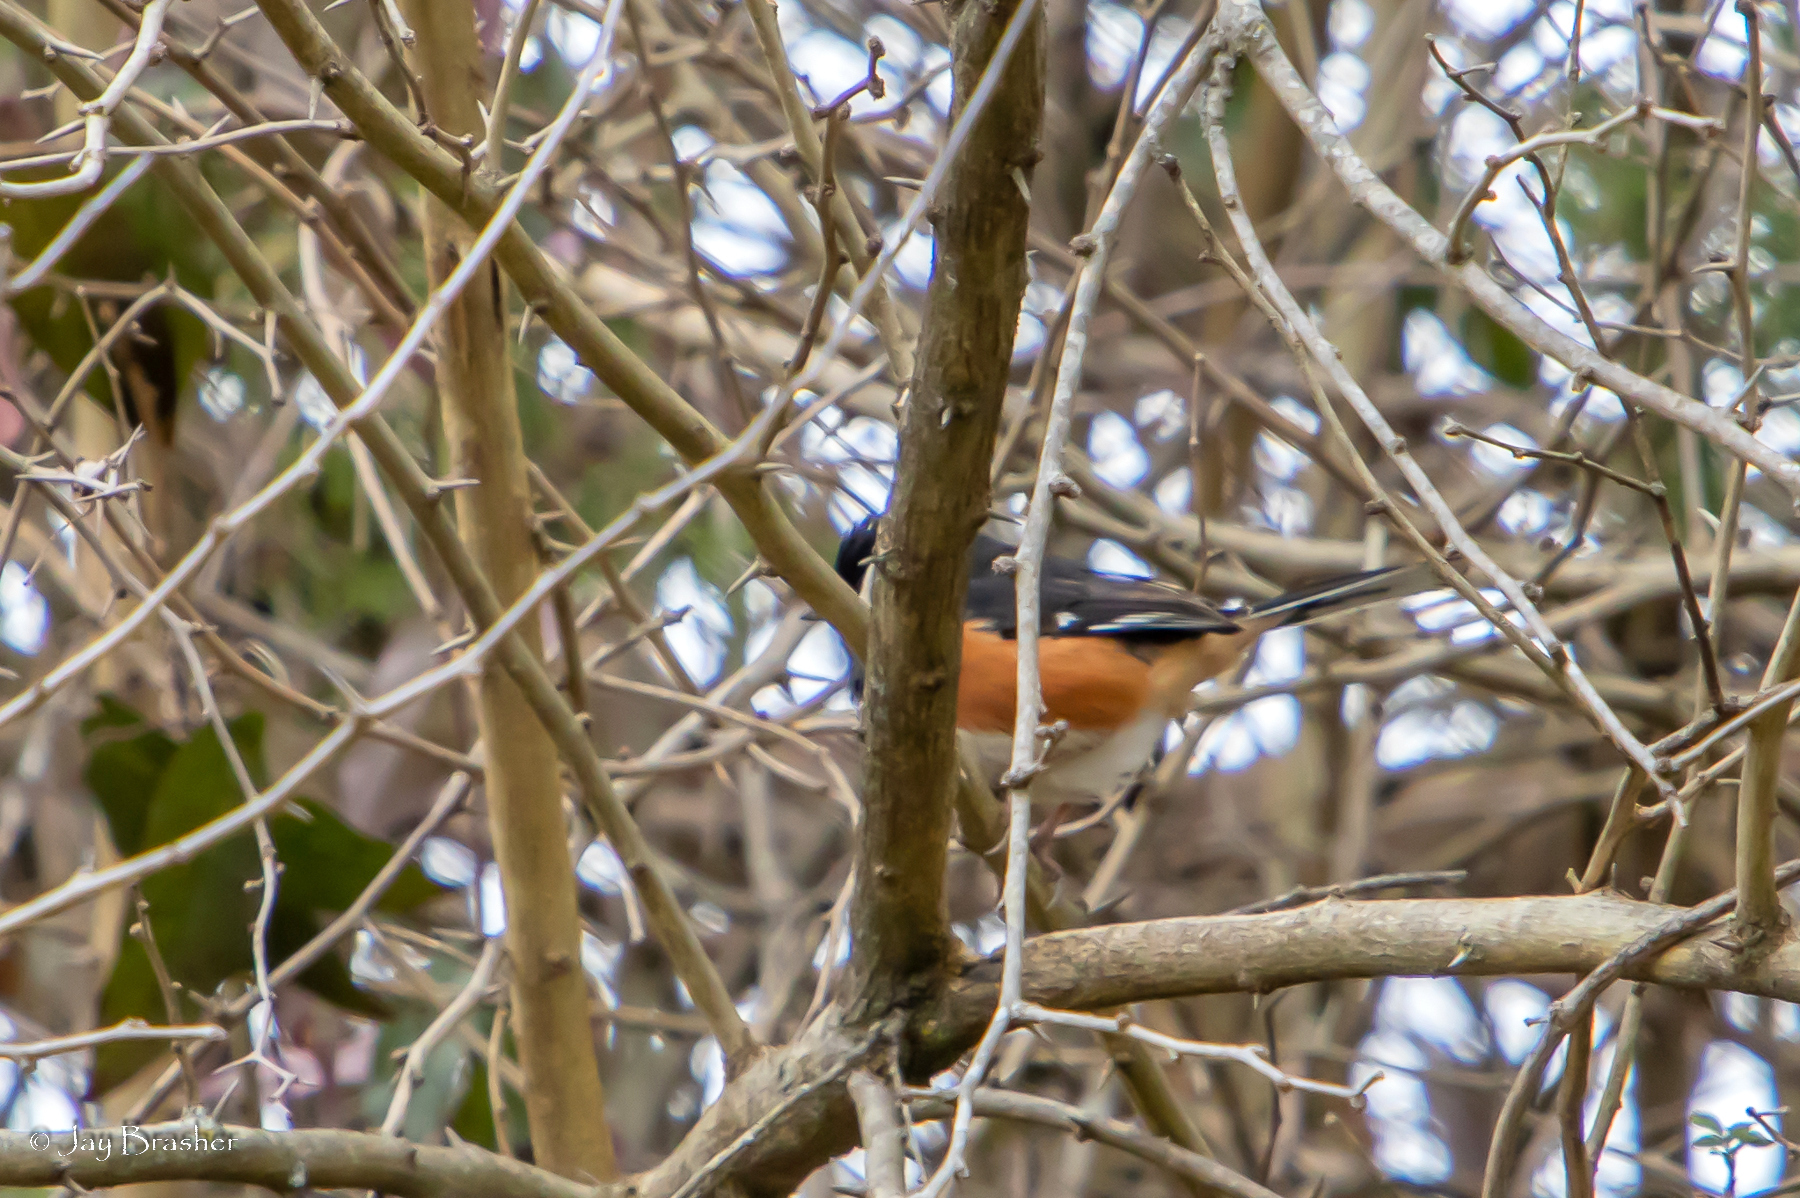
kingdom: Animalia
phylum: Chordata
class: Aves
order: Passeriformes
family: Passerellidae
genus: Pipilo
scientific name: Pipilo erythrophthalmus
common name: Eastern towhee
